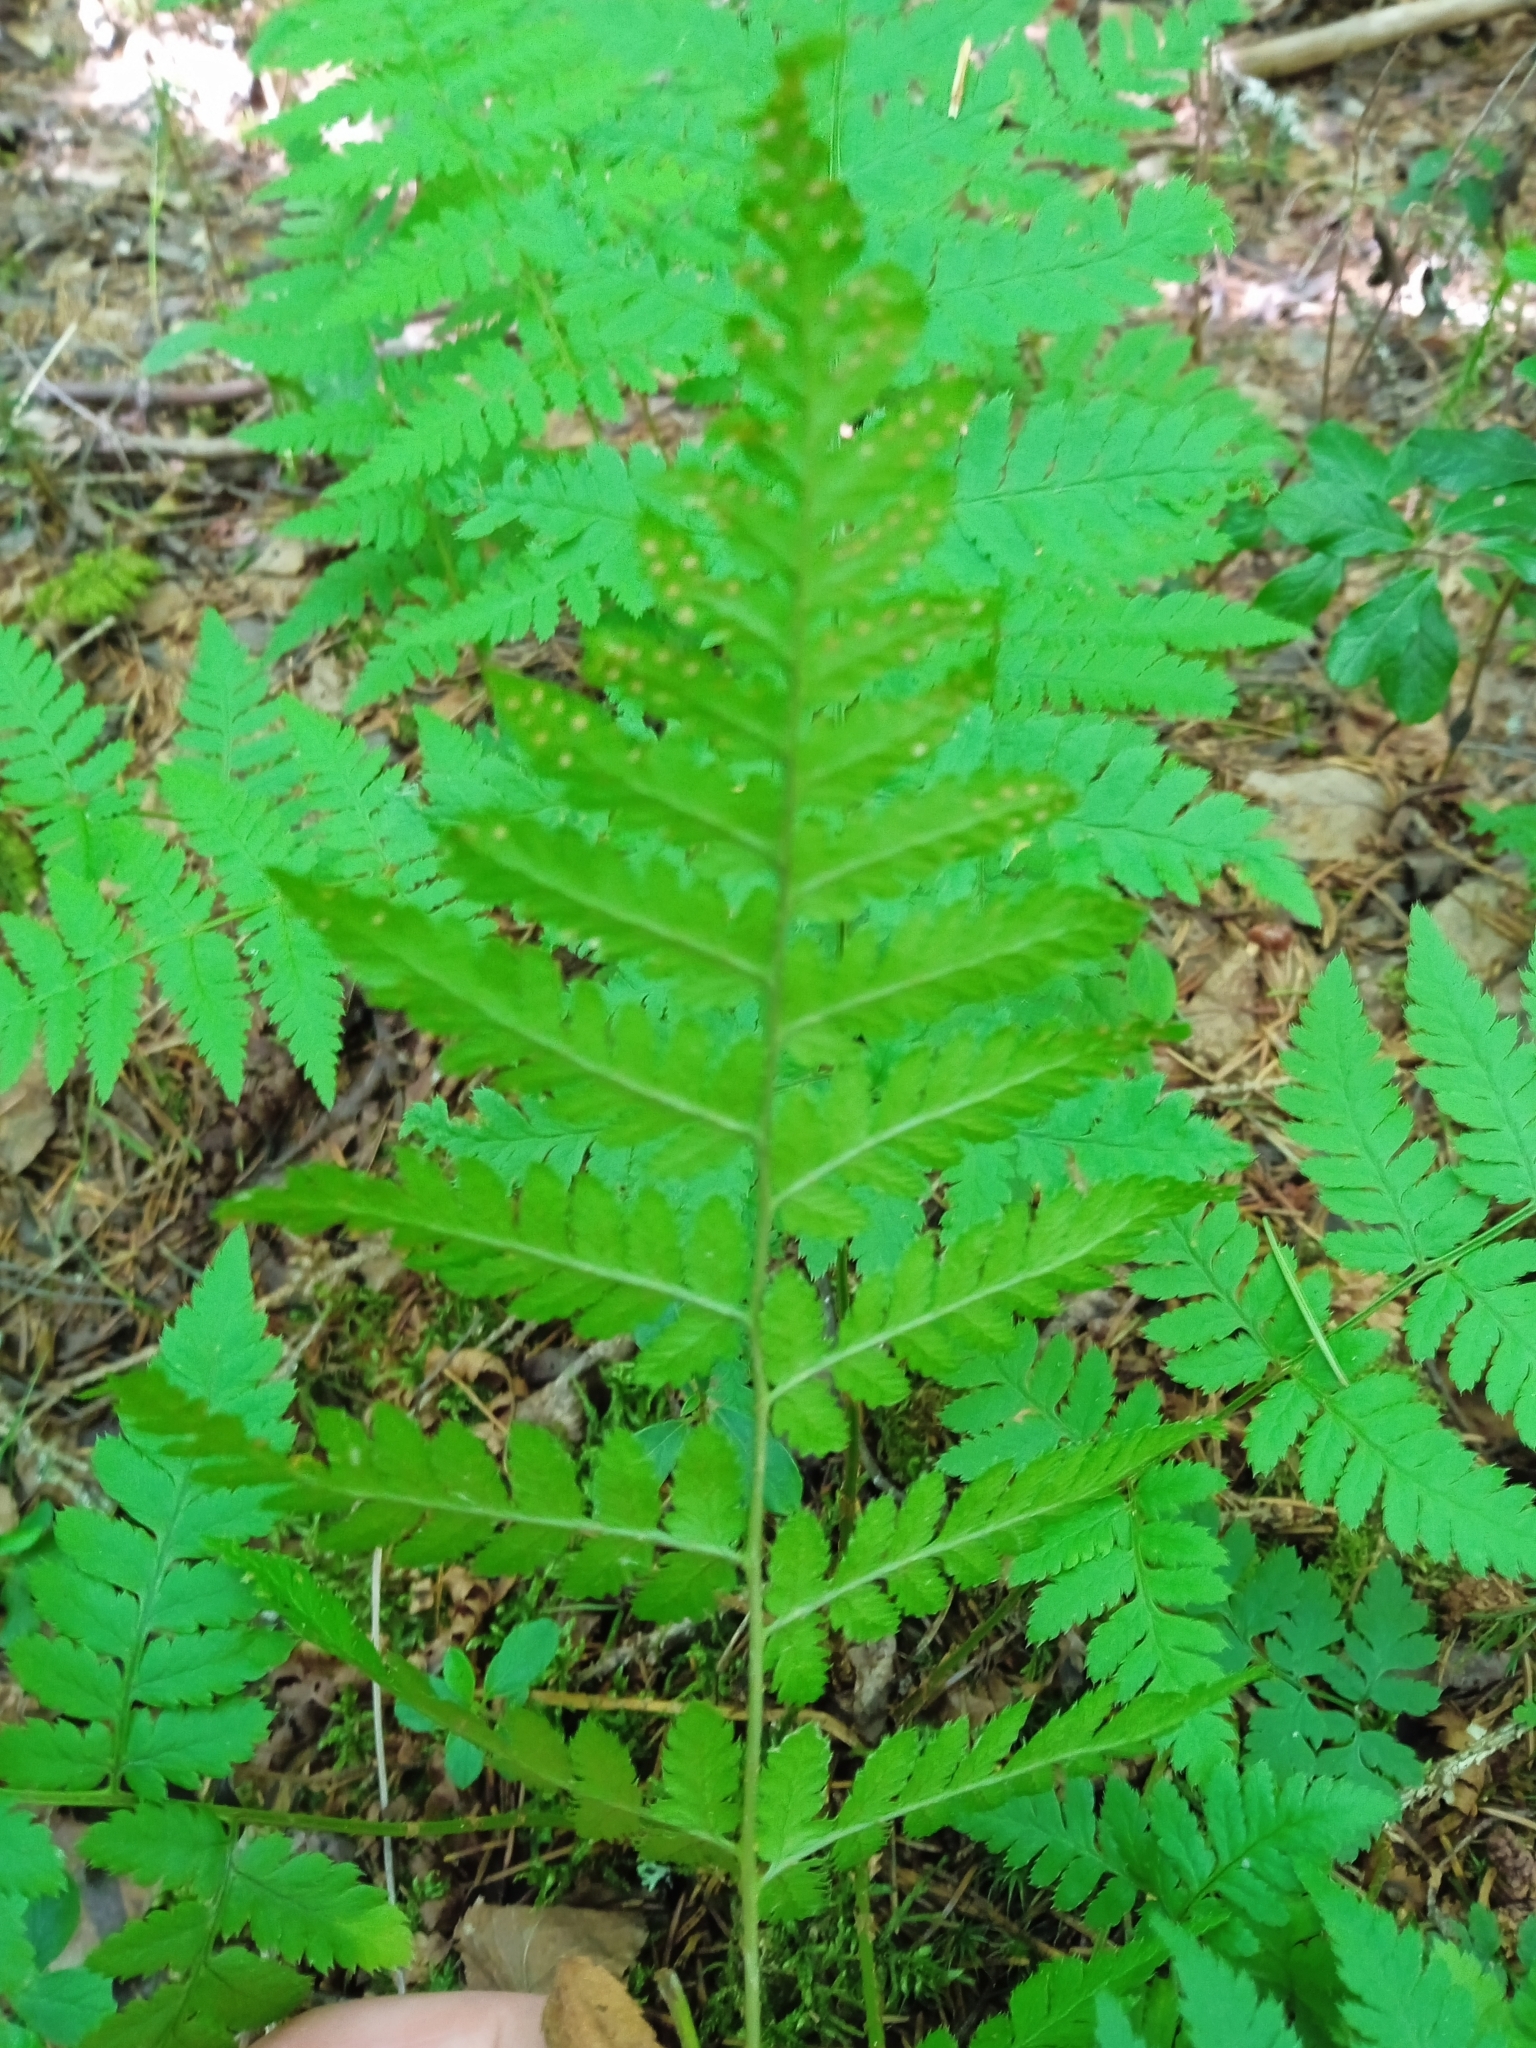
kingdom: Plantae
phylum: Tracheophyta
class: Polypodiopsida
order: Polypodiales
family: Dryopteridaceae
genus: Dryopteris
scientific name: Dryopteris carthusiana
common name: Narrow buckler-fern
